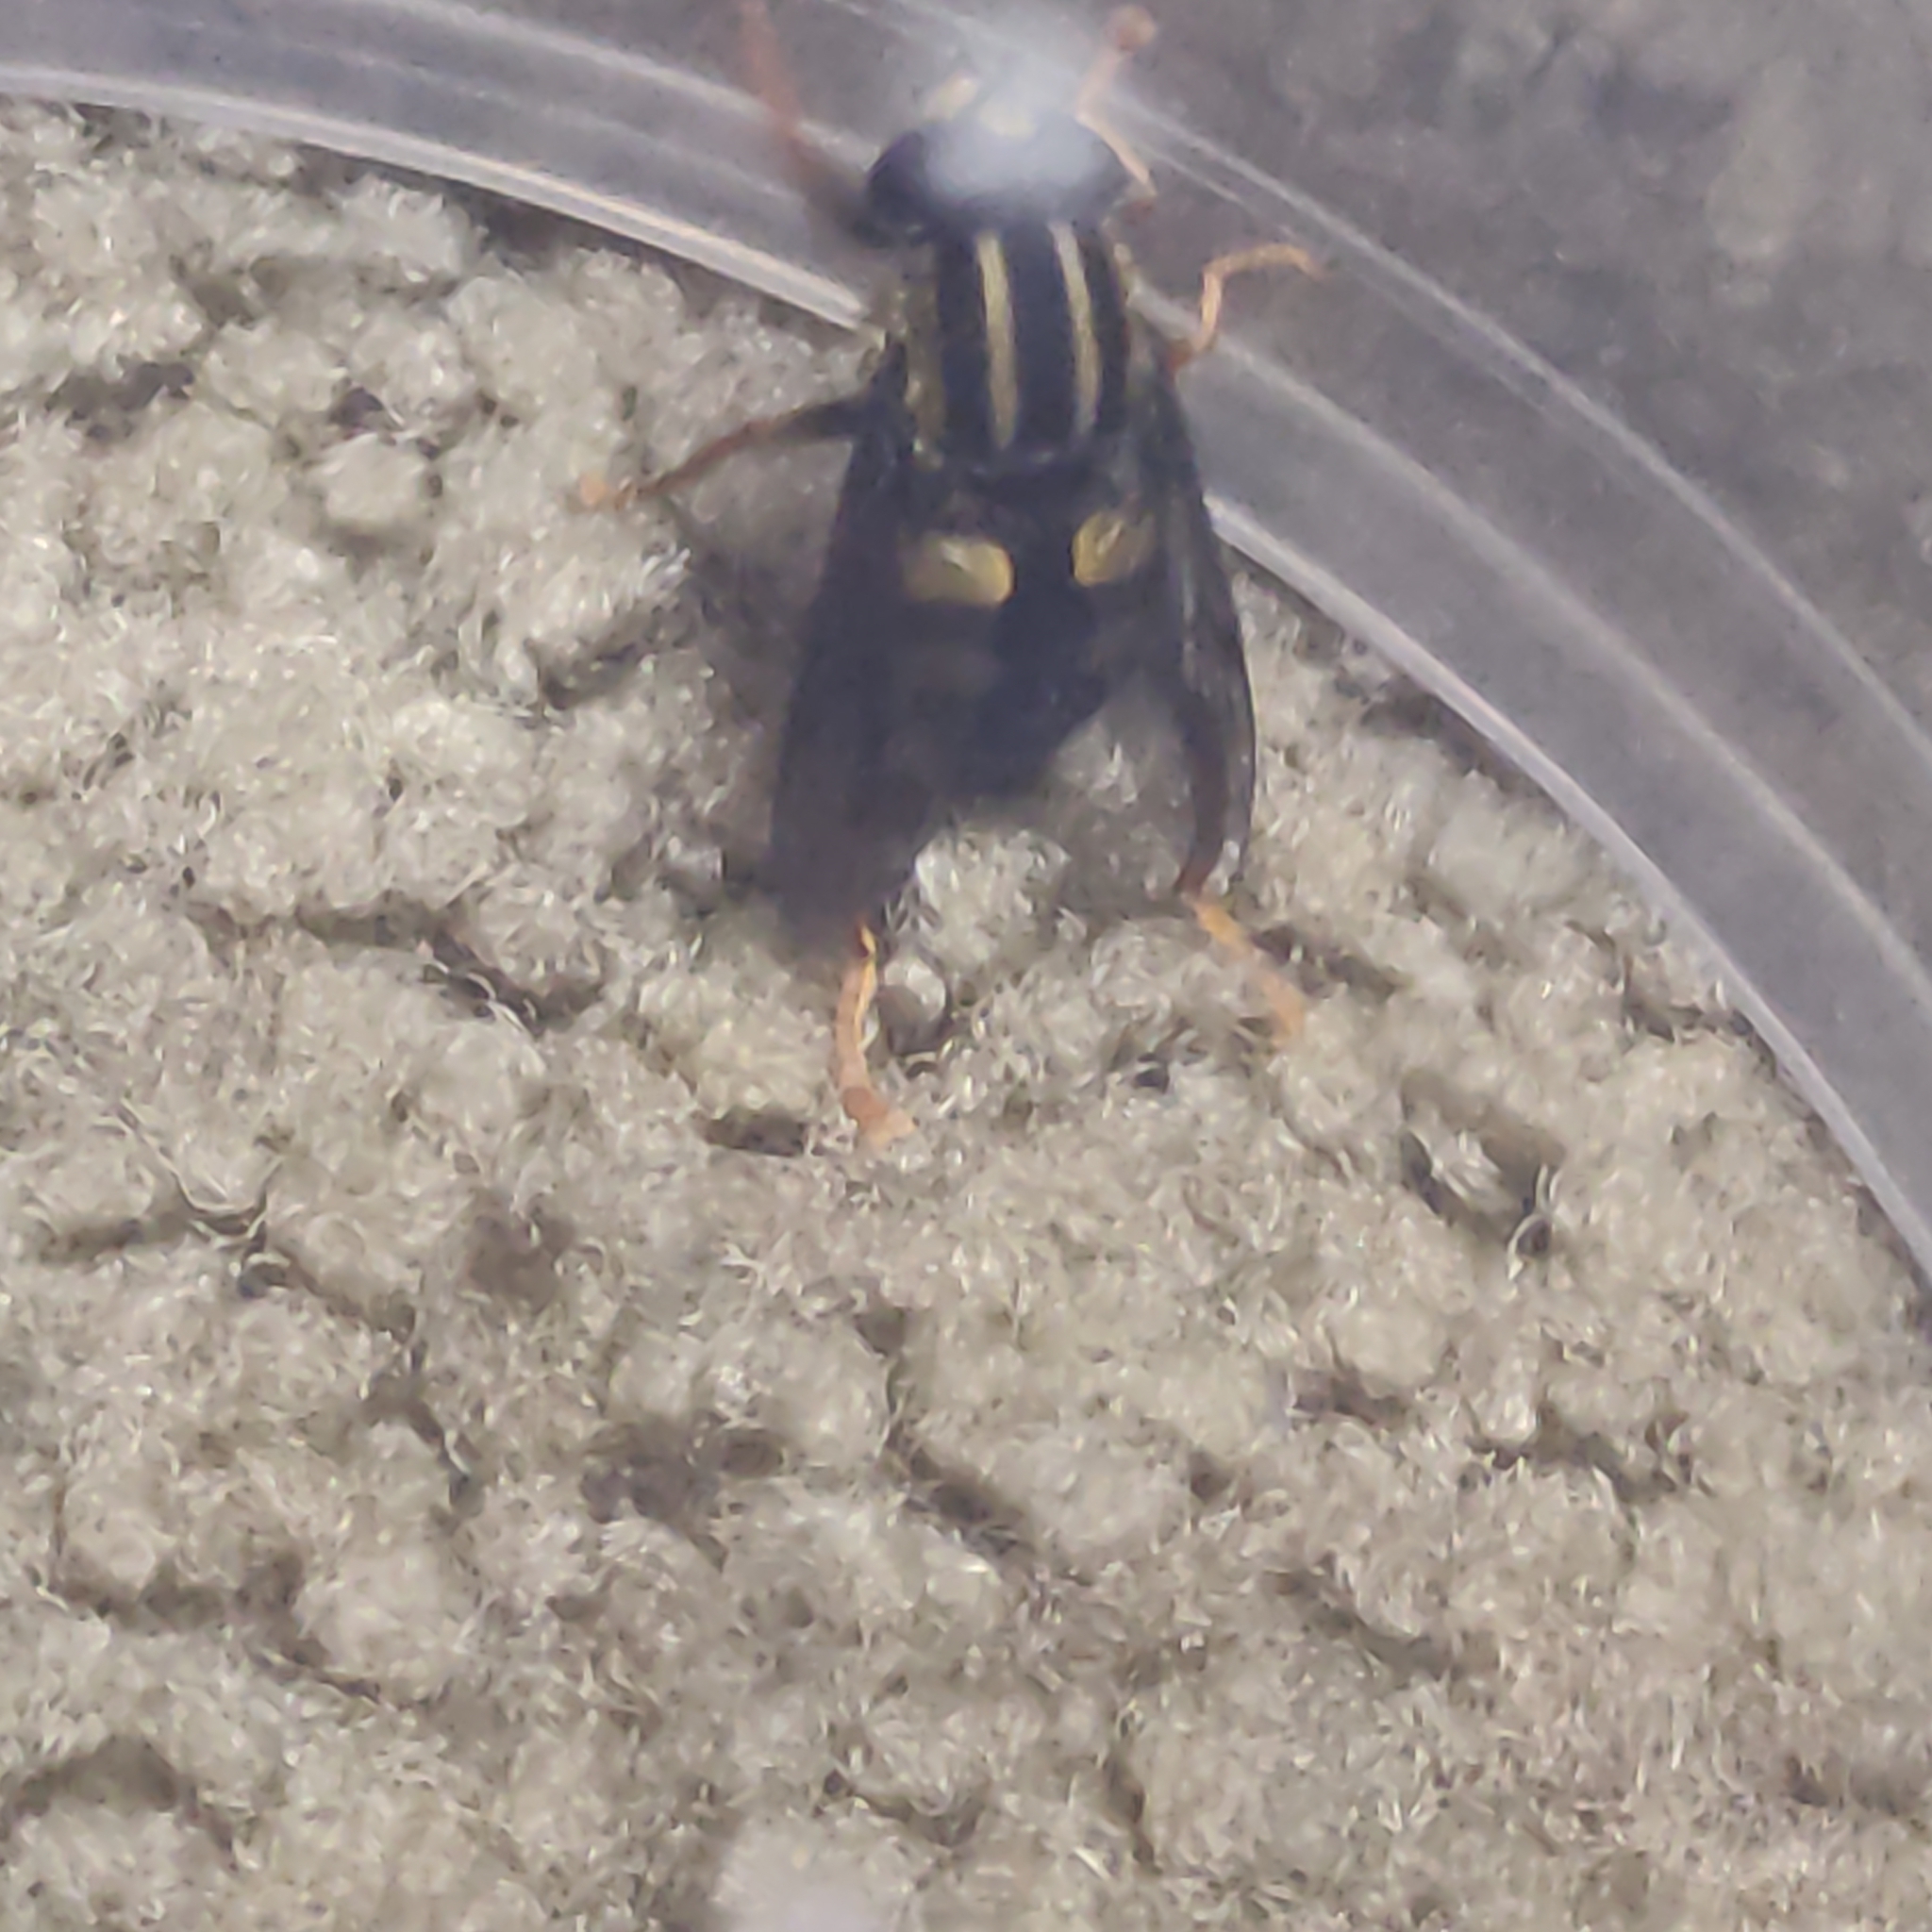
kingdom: Animalia
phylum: Arthropoda
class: Insecta
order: Diptera
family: Syrphidae
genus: Helophilus
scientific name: Helophilus seelandicus
